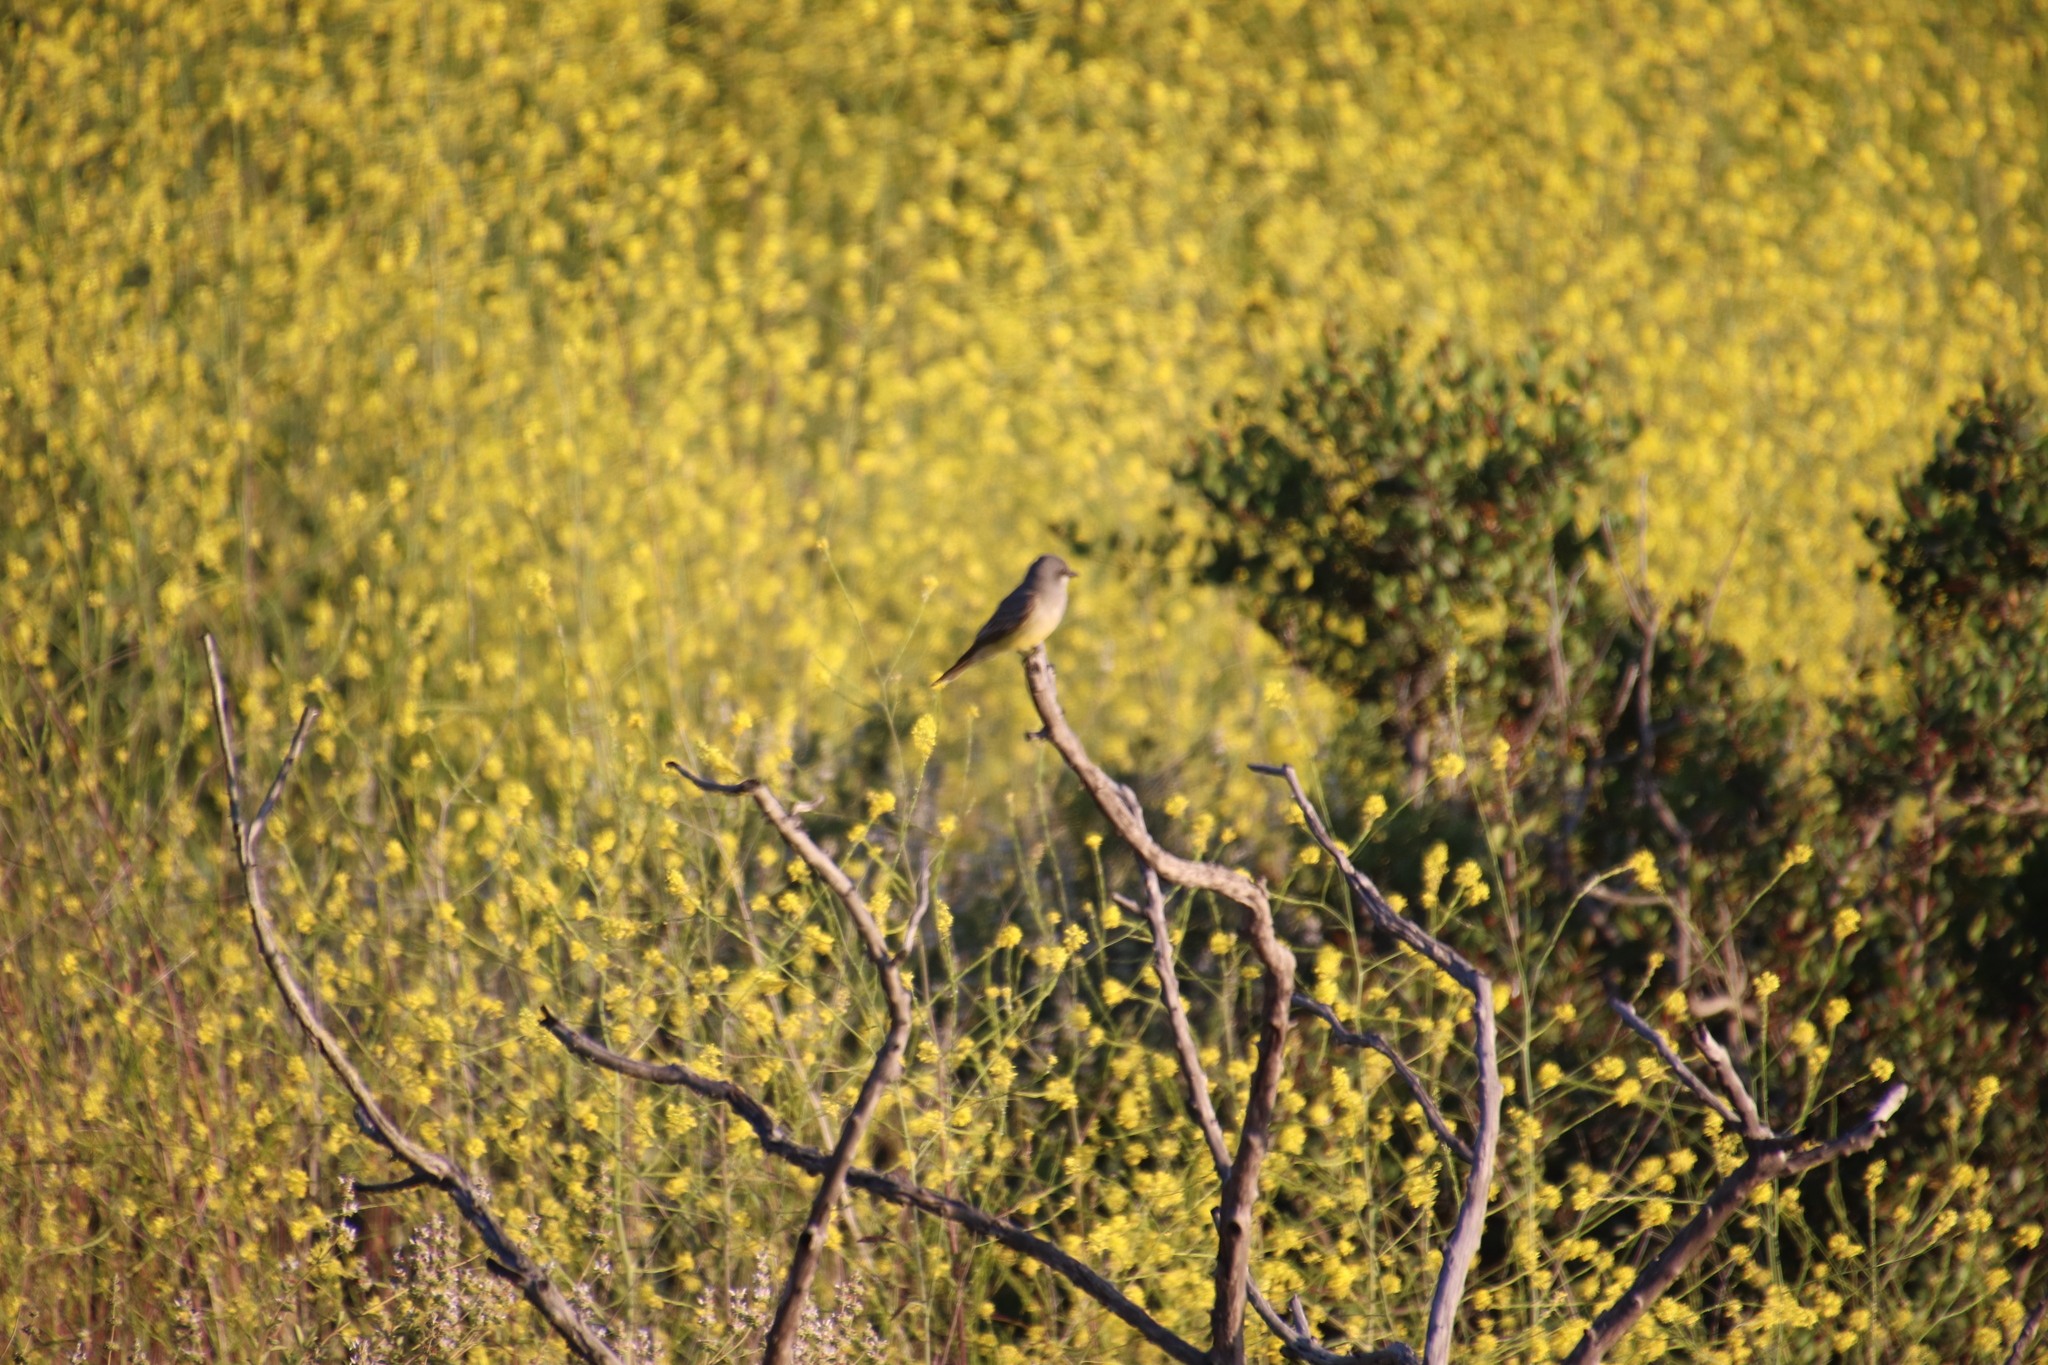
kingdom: Animalia
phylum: Chordata
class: Aves
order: Passeriformes
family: Tyrannidae
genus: Tyrannus
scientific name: Tyrannus vociferans
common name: Cassin's kingbird
